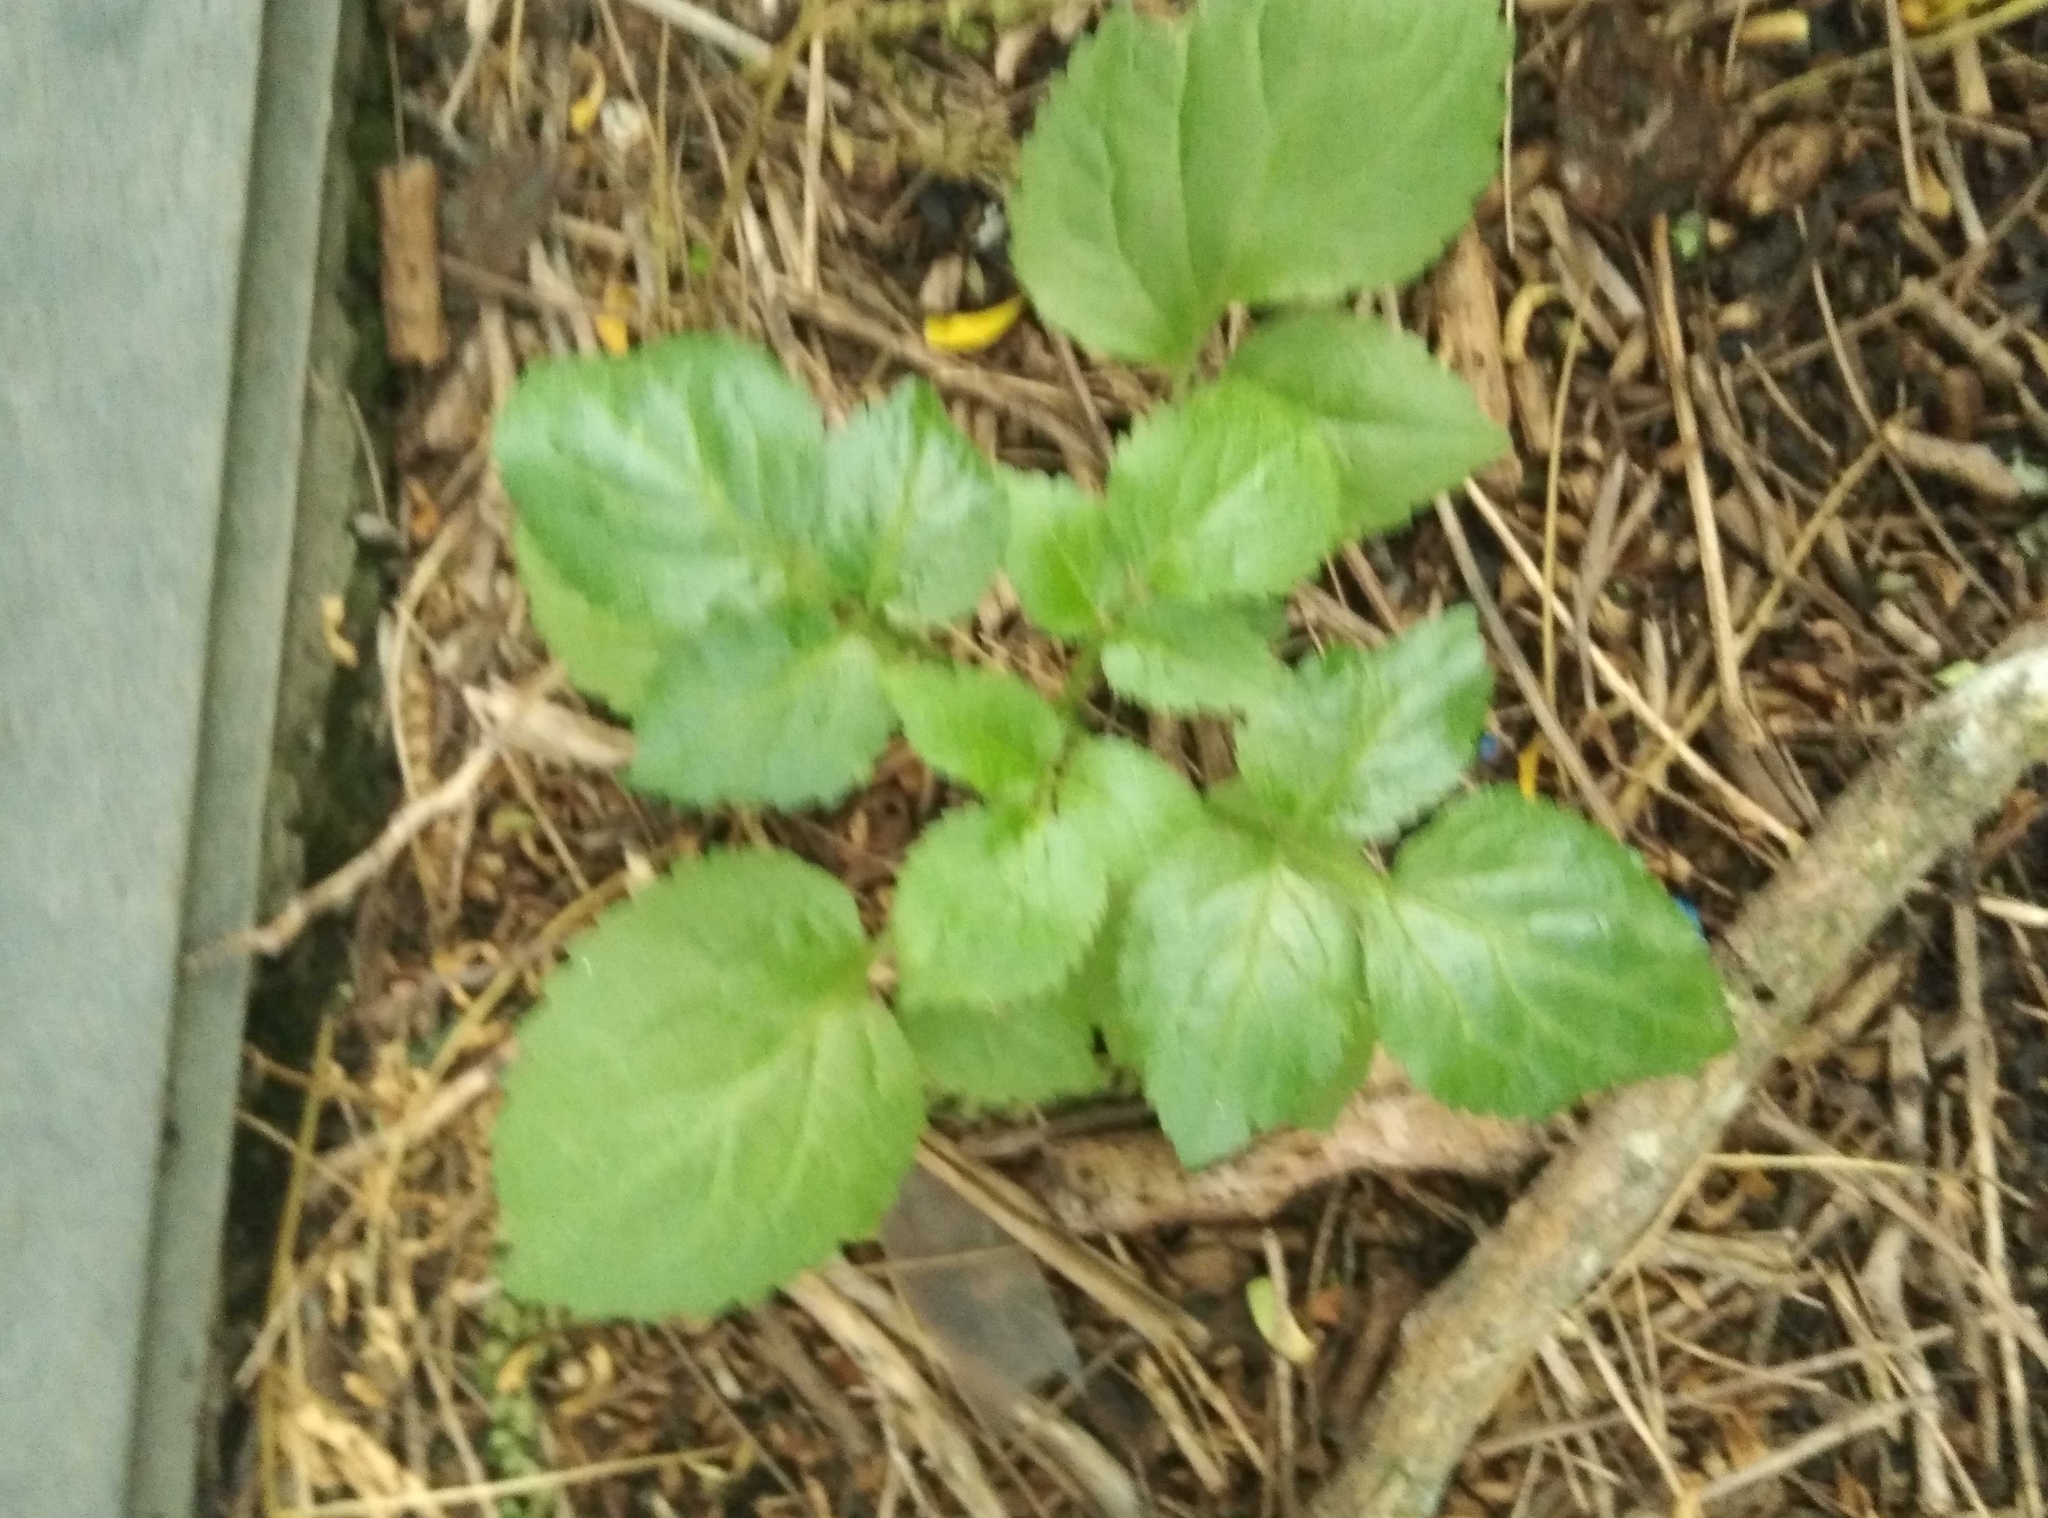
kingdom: Plantae
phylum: Tracheophyta
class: Magnoliopsida
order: Dipsacales
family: Viburnaceae
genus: Sambucus
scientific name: Sambucus nigra
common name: Elder
